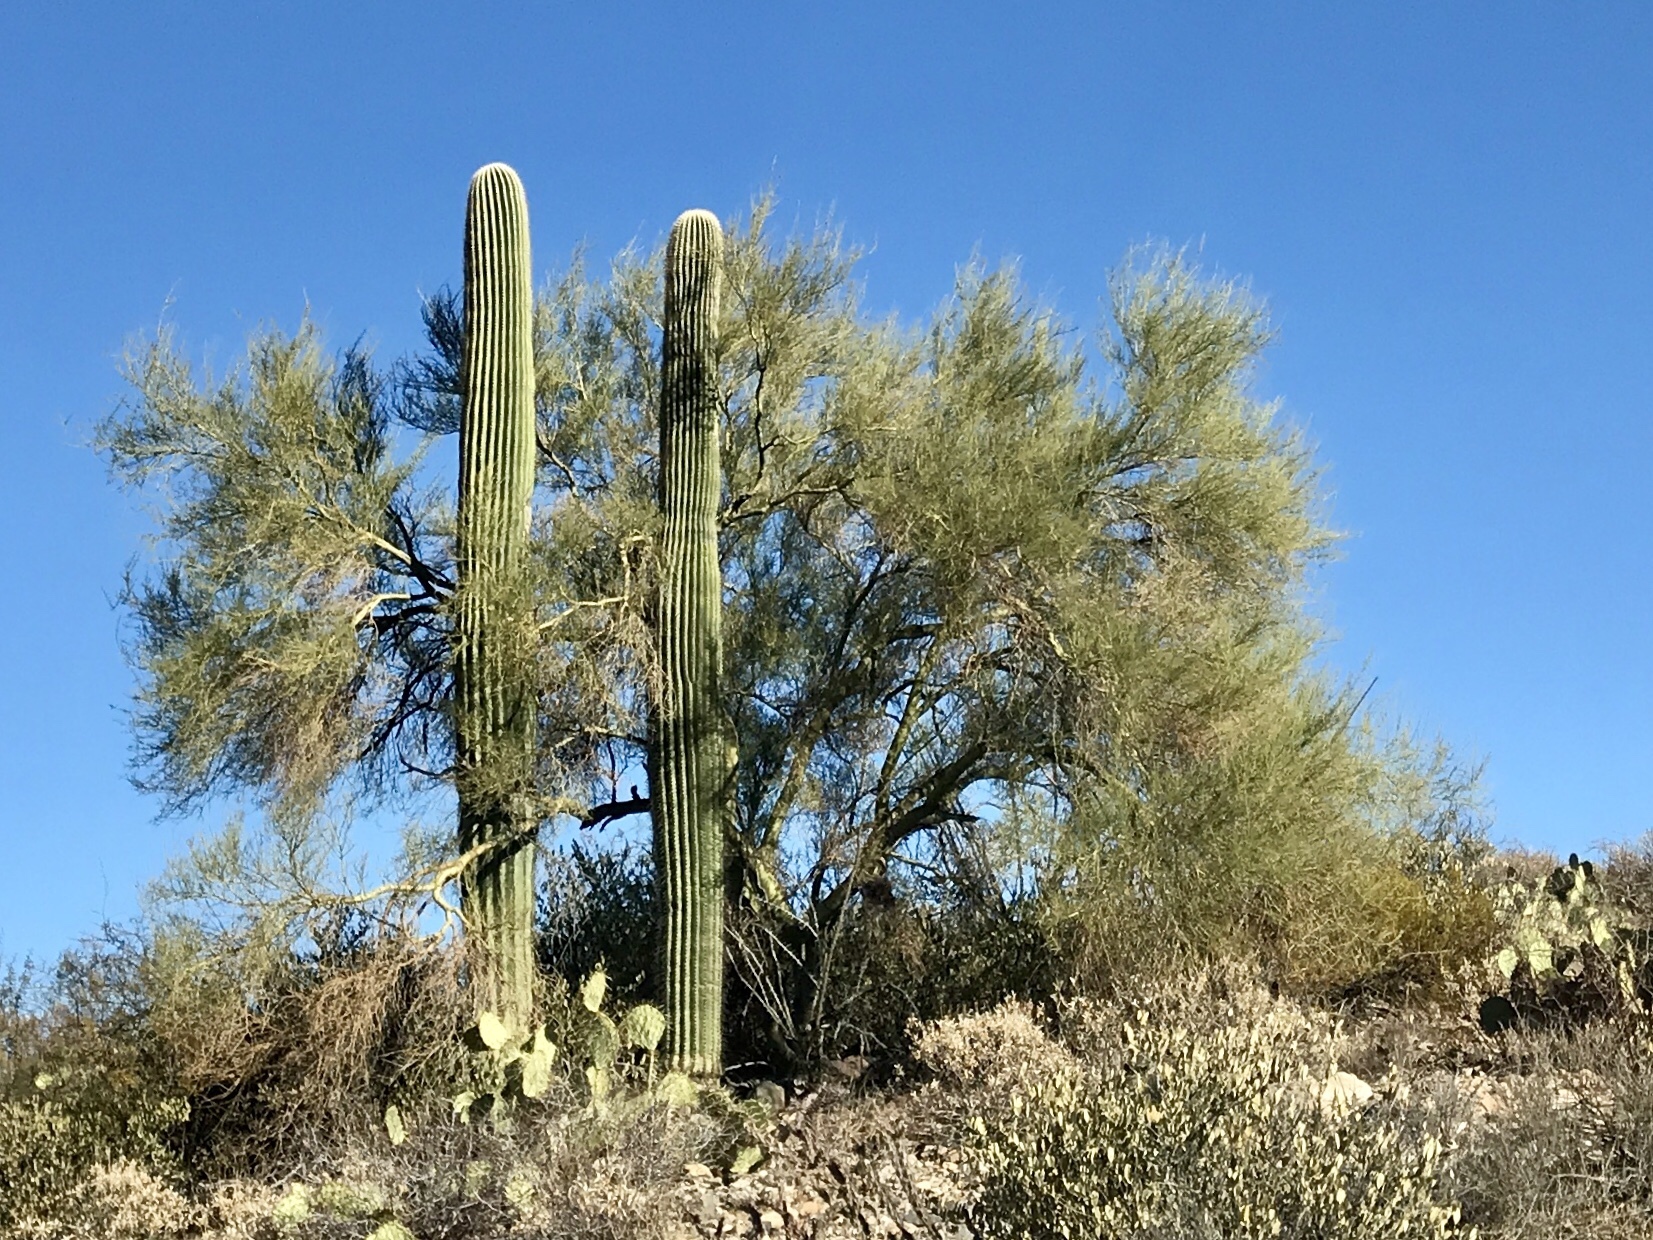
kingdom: Plantae
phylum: Tracheophyta
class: Magnoliopsida
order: Fabales
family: Fabaceae
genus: Parkinsonia
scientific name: Parkinsonia microphylla
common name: Yellow paloverde
